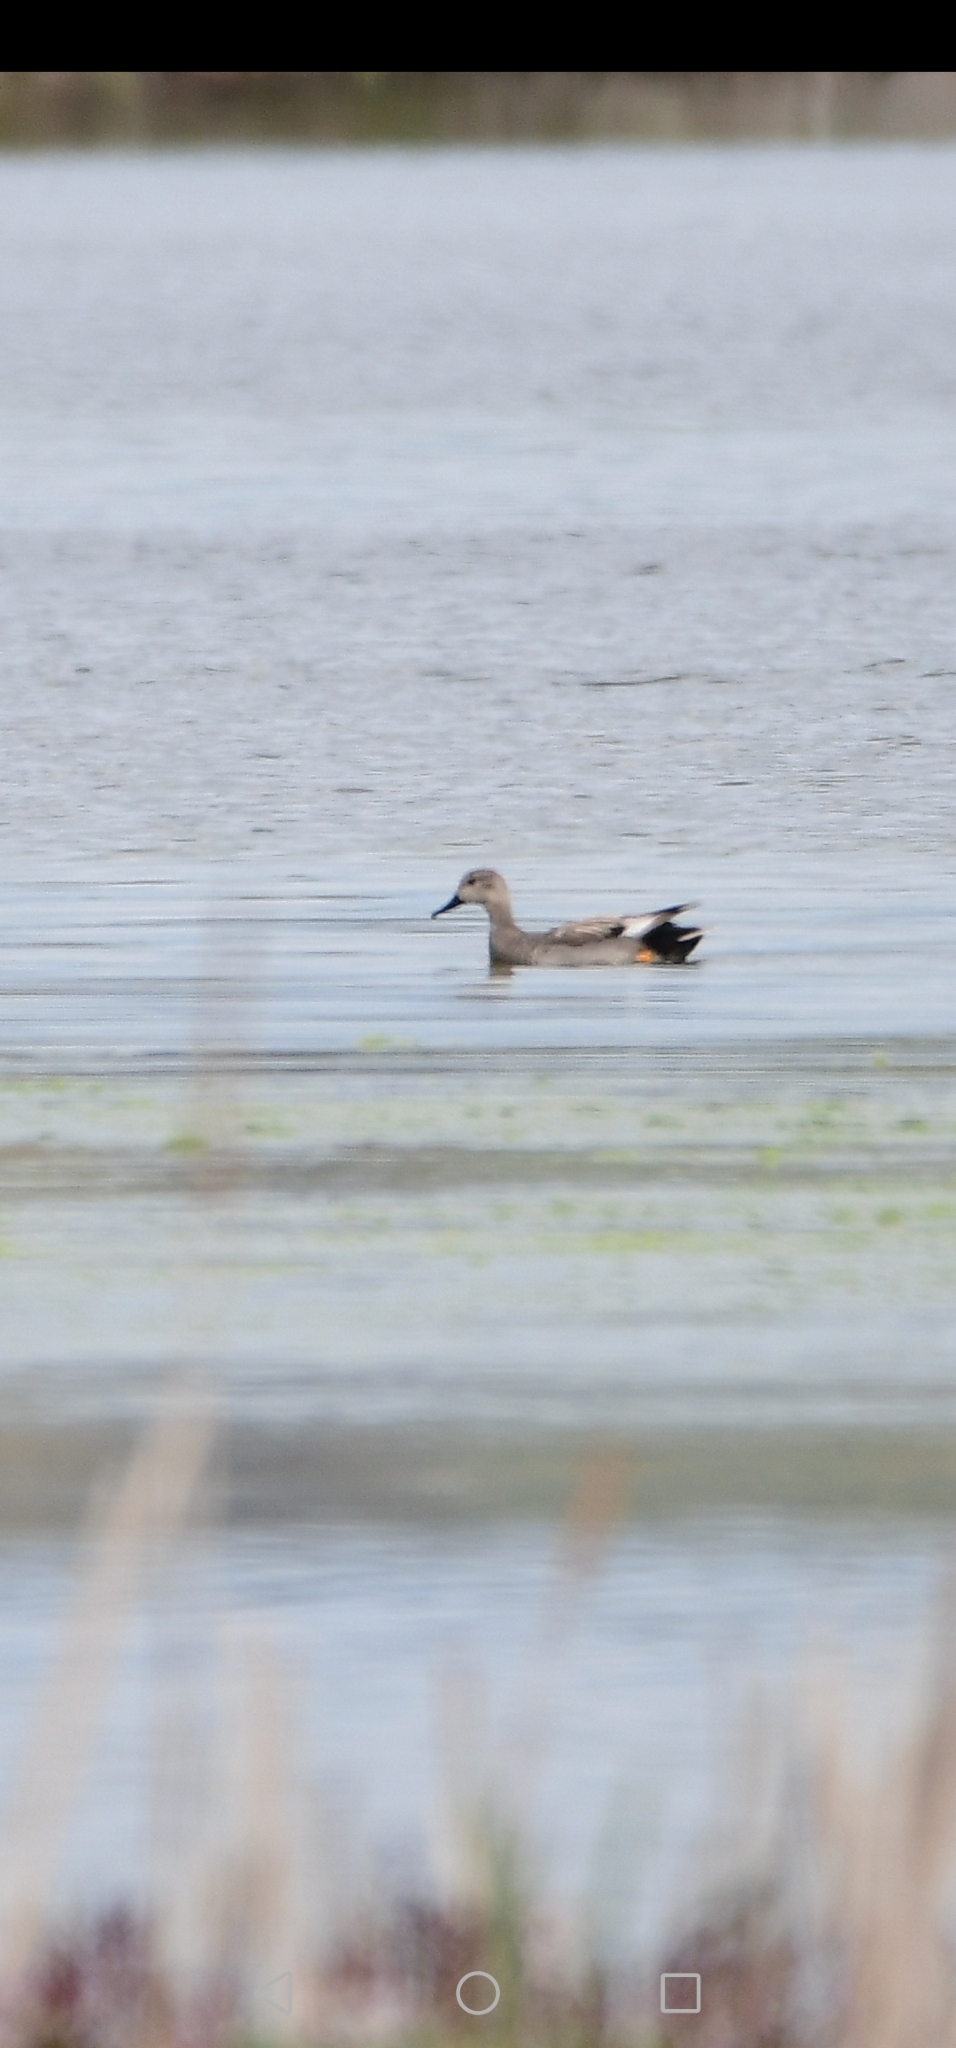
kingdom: Animalia
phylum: Chordata
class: Aves
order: Anseriformes
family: Anatidae
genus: Mareca
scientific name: Mareca strepera
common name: Gadwall
